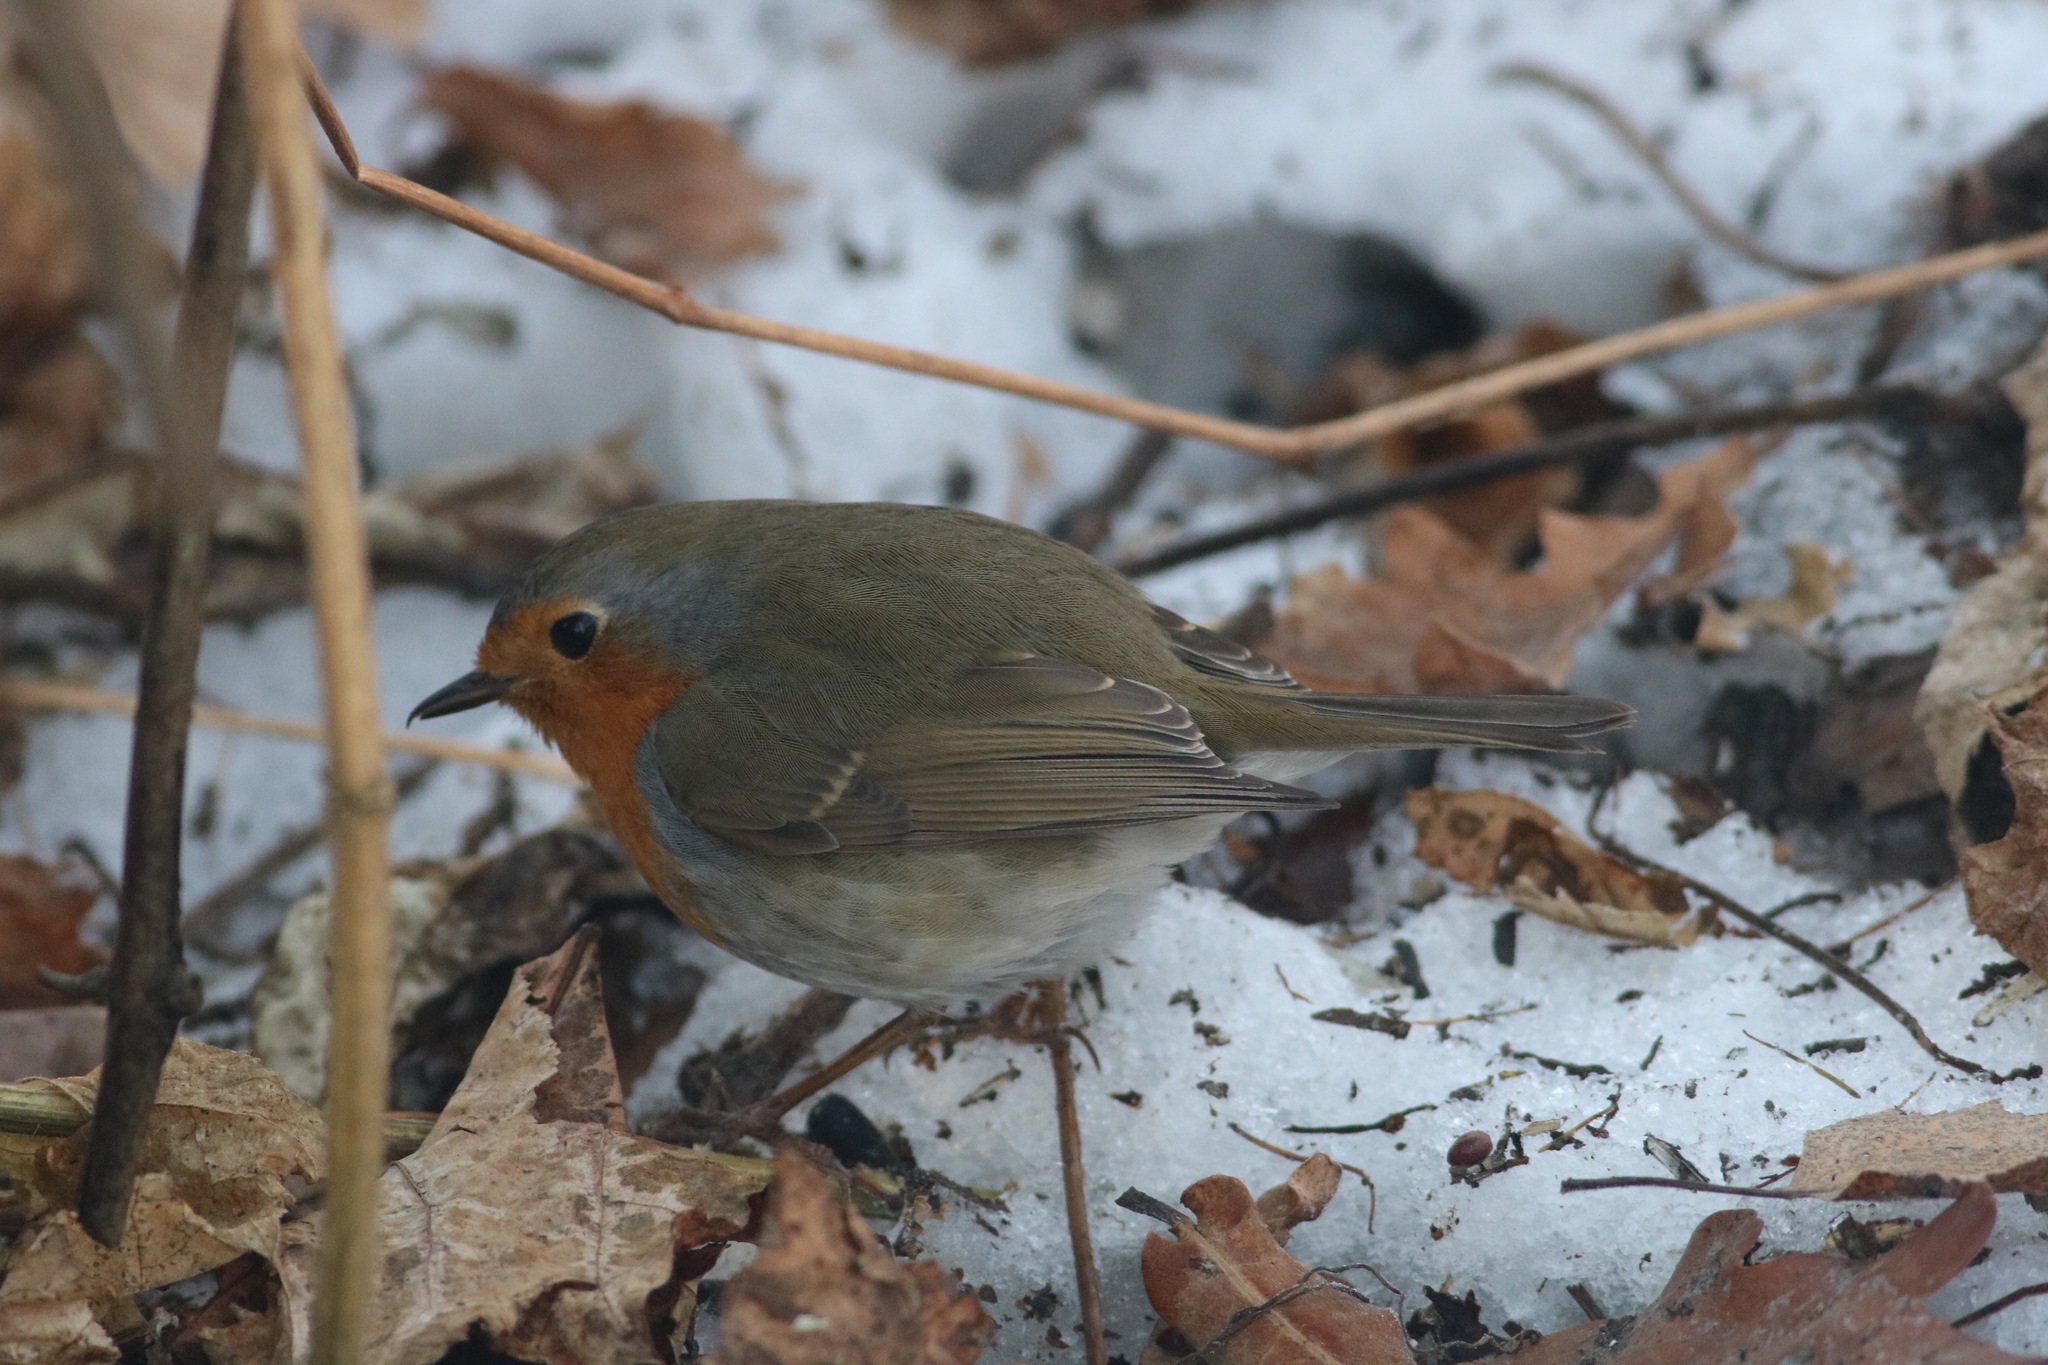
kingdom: Animalia
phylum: Chordata
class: Aves
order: Passeriformes
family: Muscicapidae
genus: Erithacus
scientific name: Erithacus rubecula
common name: European robin
